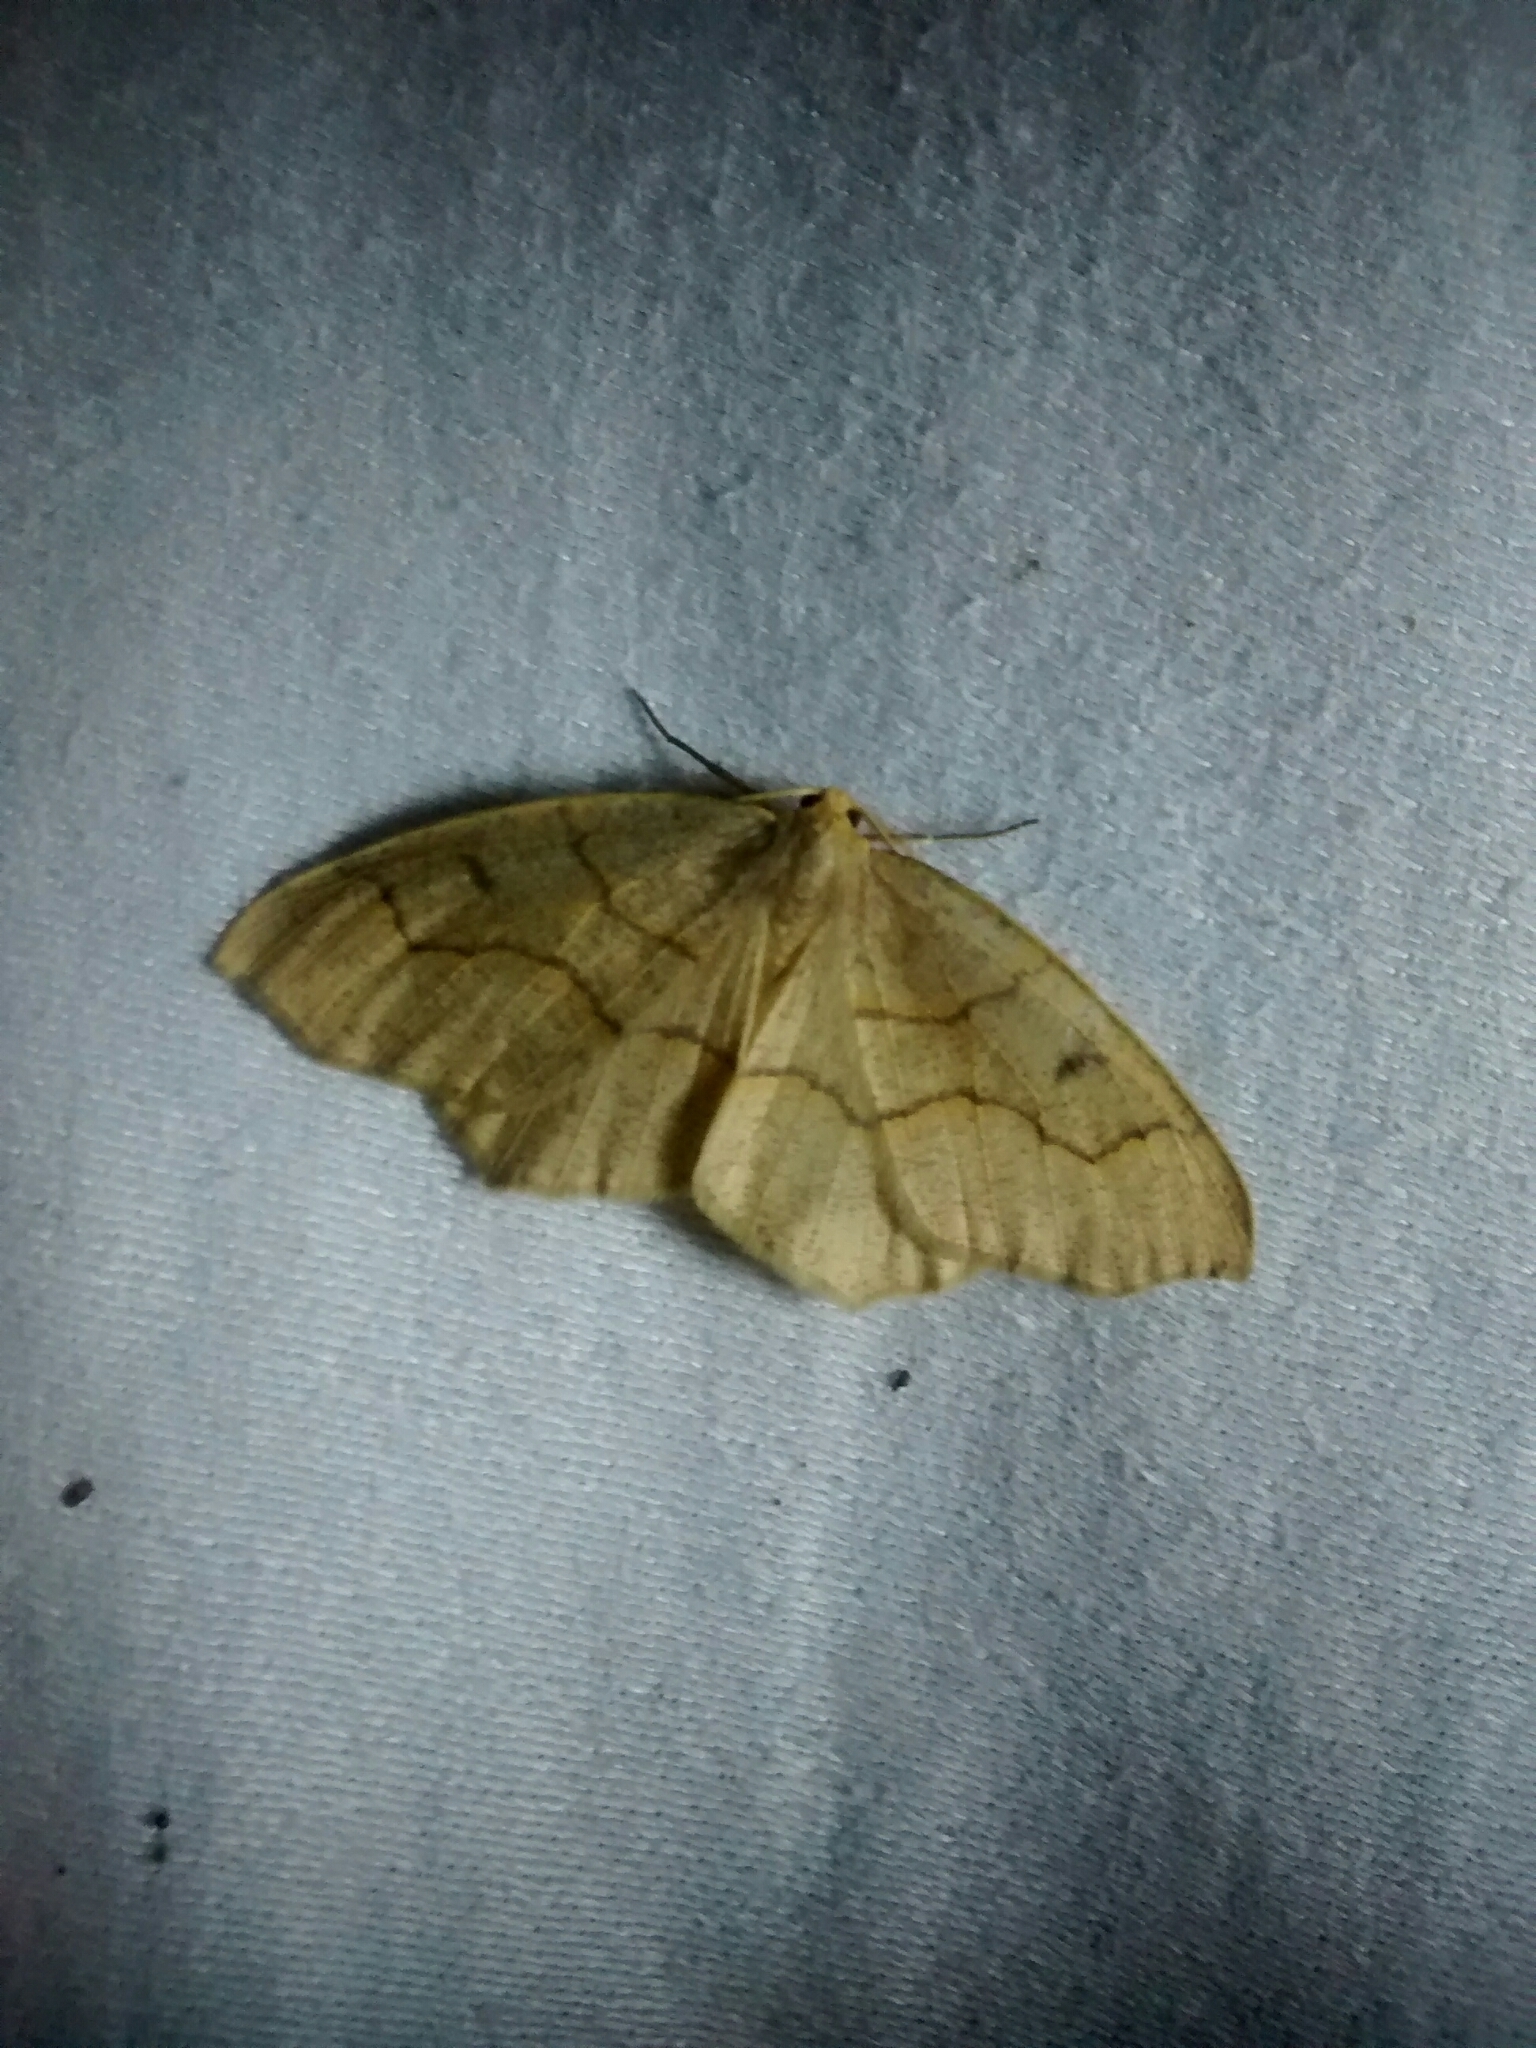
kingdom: Animalia
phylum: Arthropoda
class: Insecta
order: Lepidoptera
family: Geometridae
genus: Lambdina
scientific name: Lambdina fiscellaria
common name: Hemlock looper
